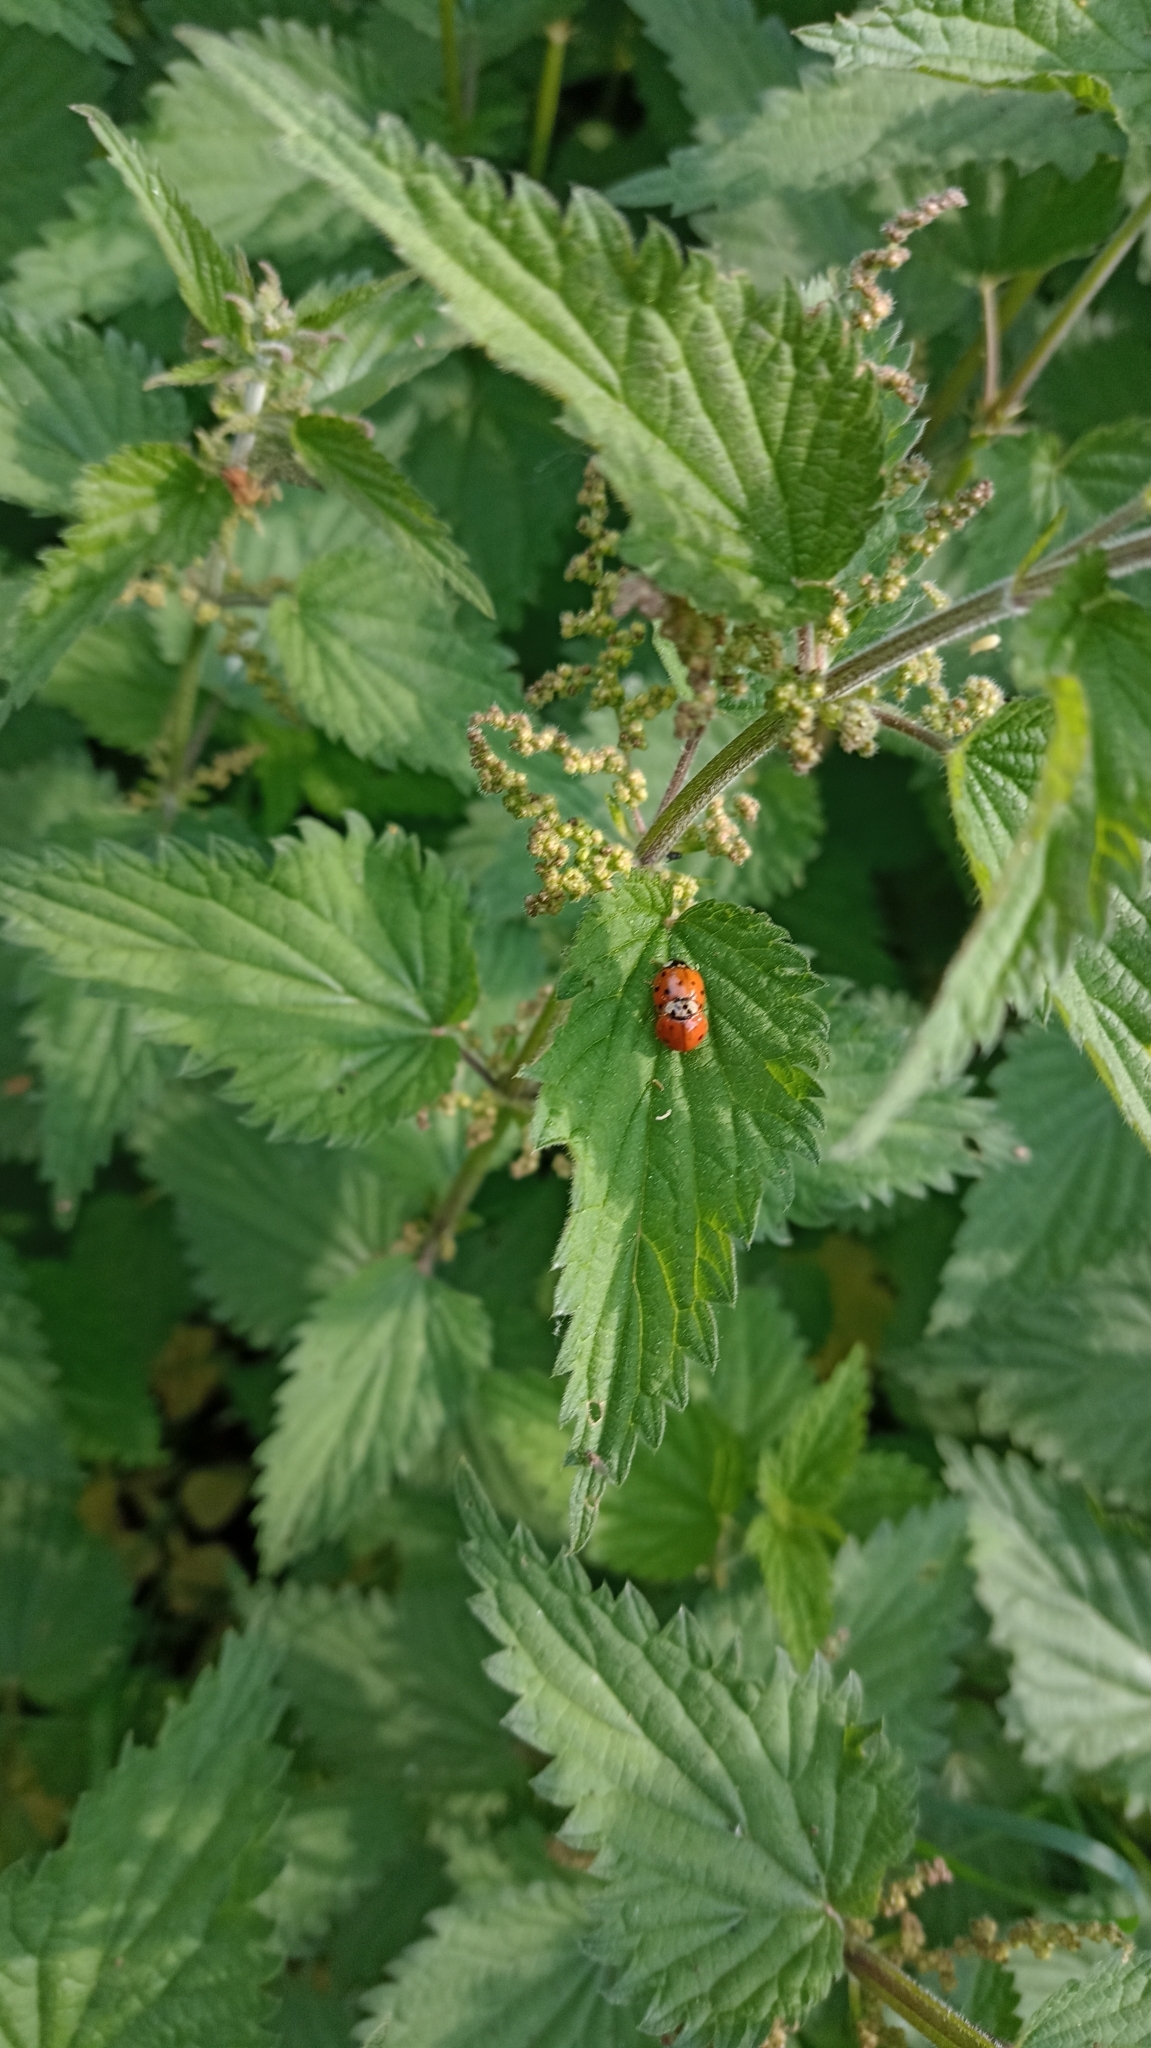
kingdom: Animalia
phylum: Arthropoda
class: Insecta
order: Coleoptera
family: Coccinellidae
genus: Harmonia
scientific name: Harmonia axyridis
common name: Harlequin ladybird
